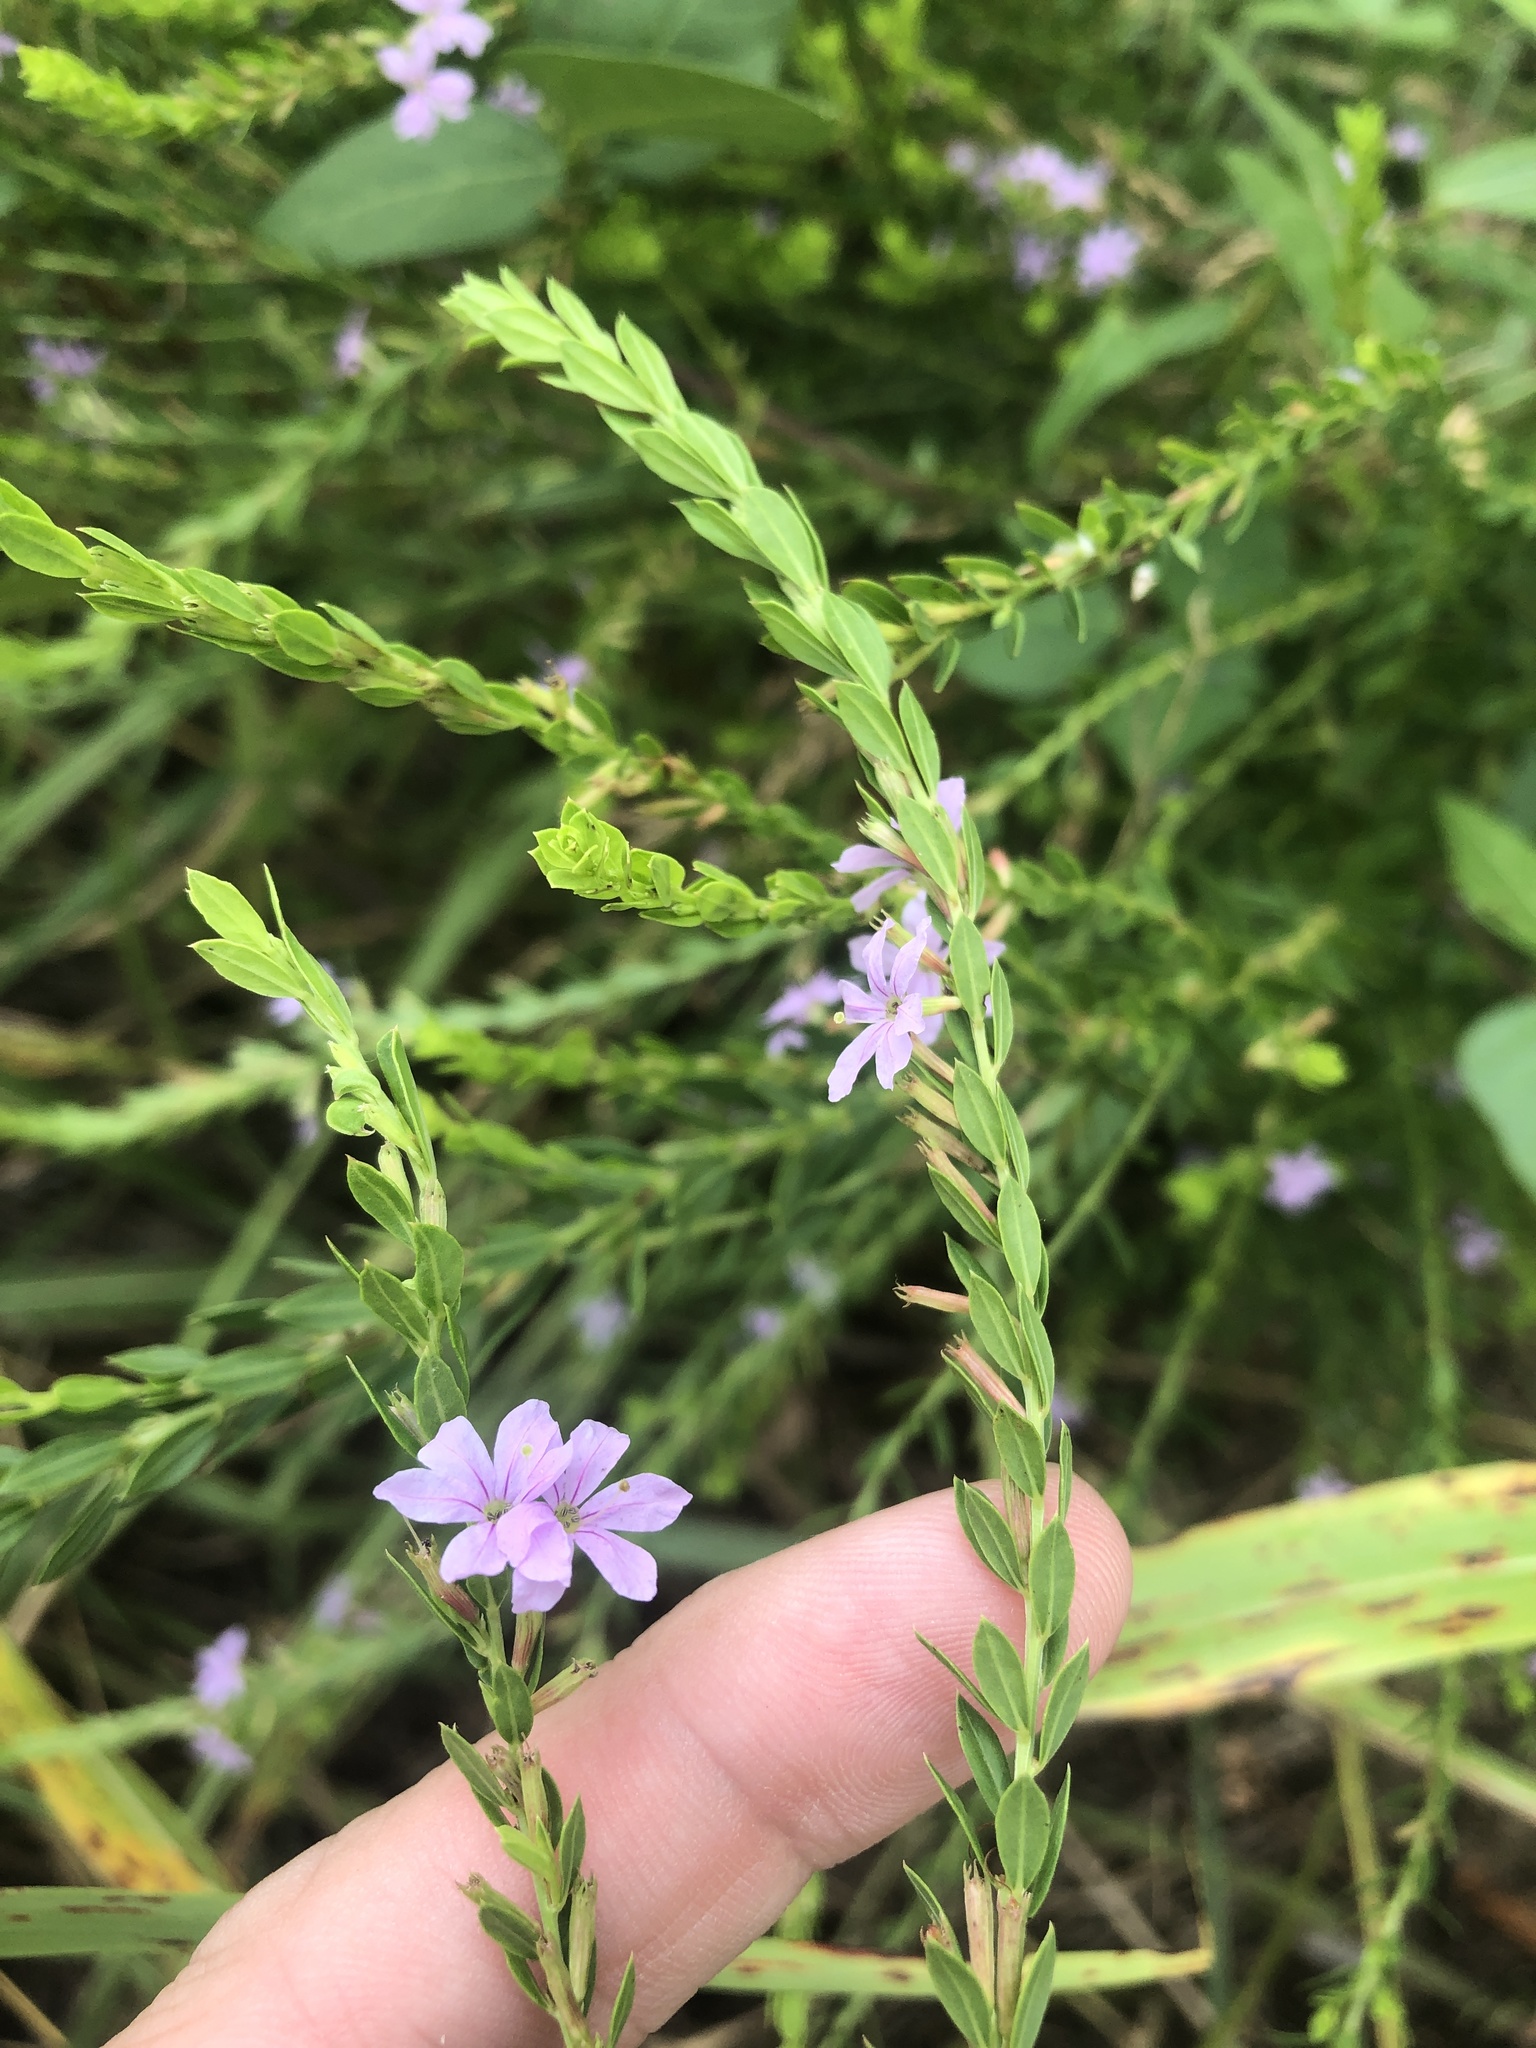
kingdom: Plantae
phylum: Tracheophyta
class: Magnoliopsida
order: Myrtales
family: Lythraceae
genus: Lythrum
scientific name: Lythrum alatum
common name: Winged loosestrife
